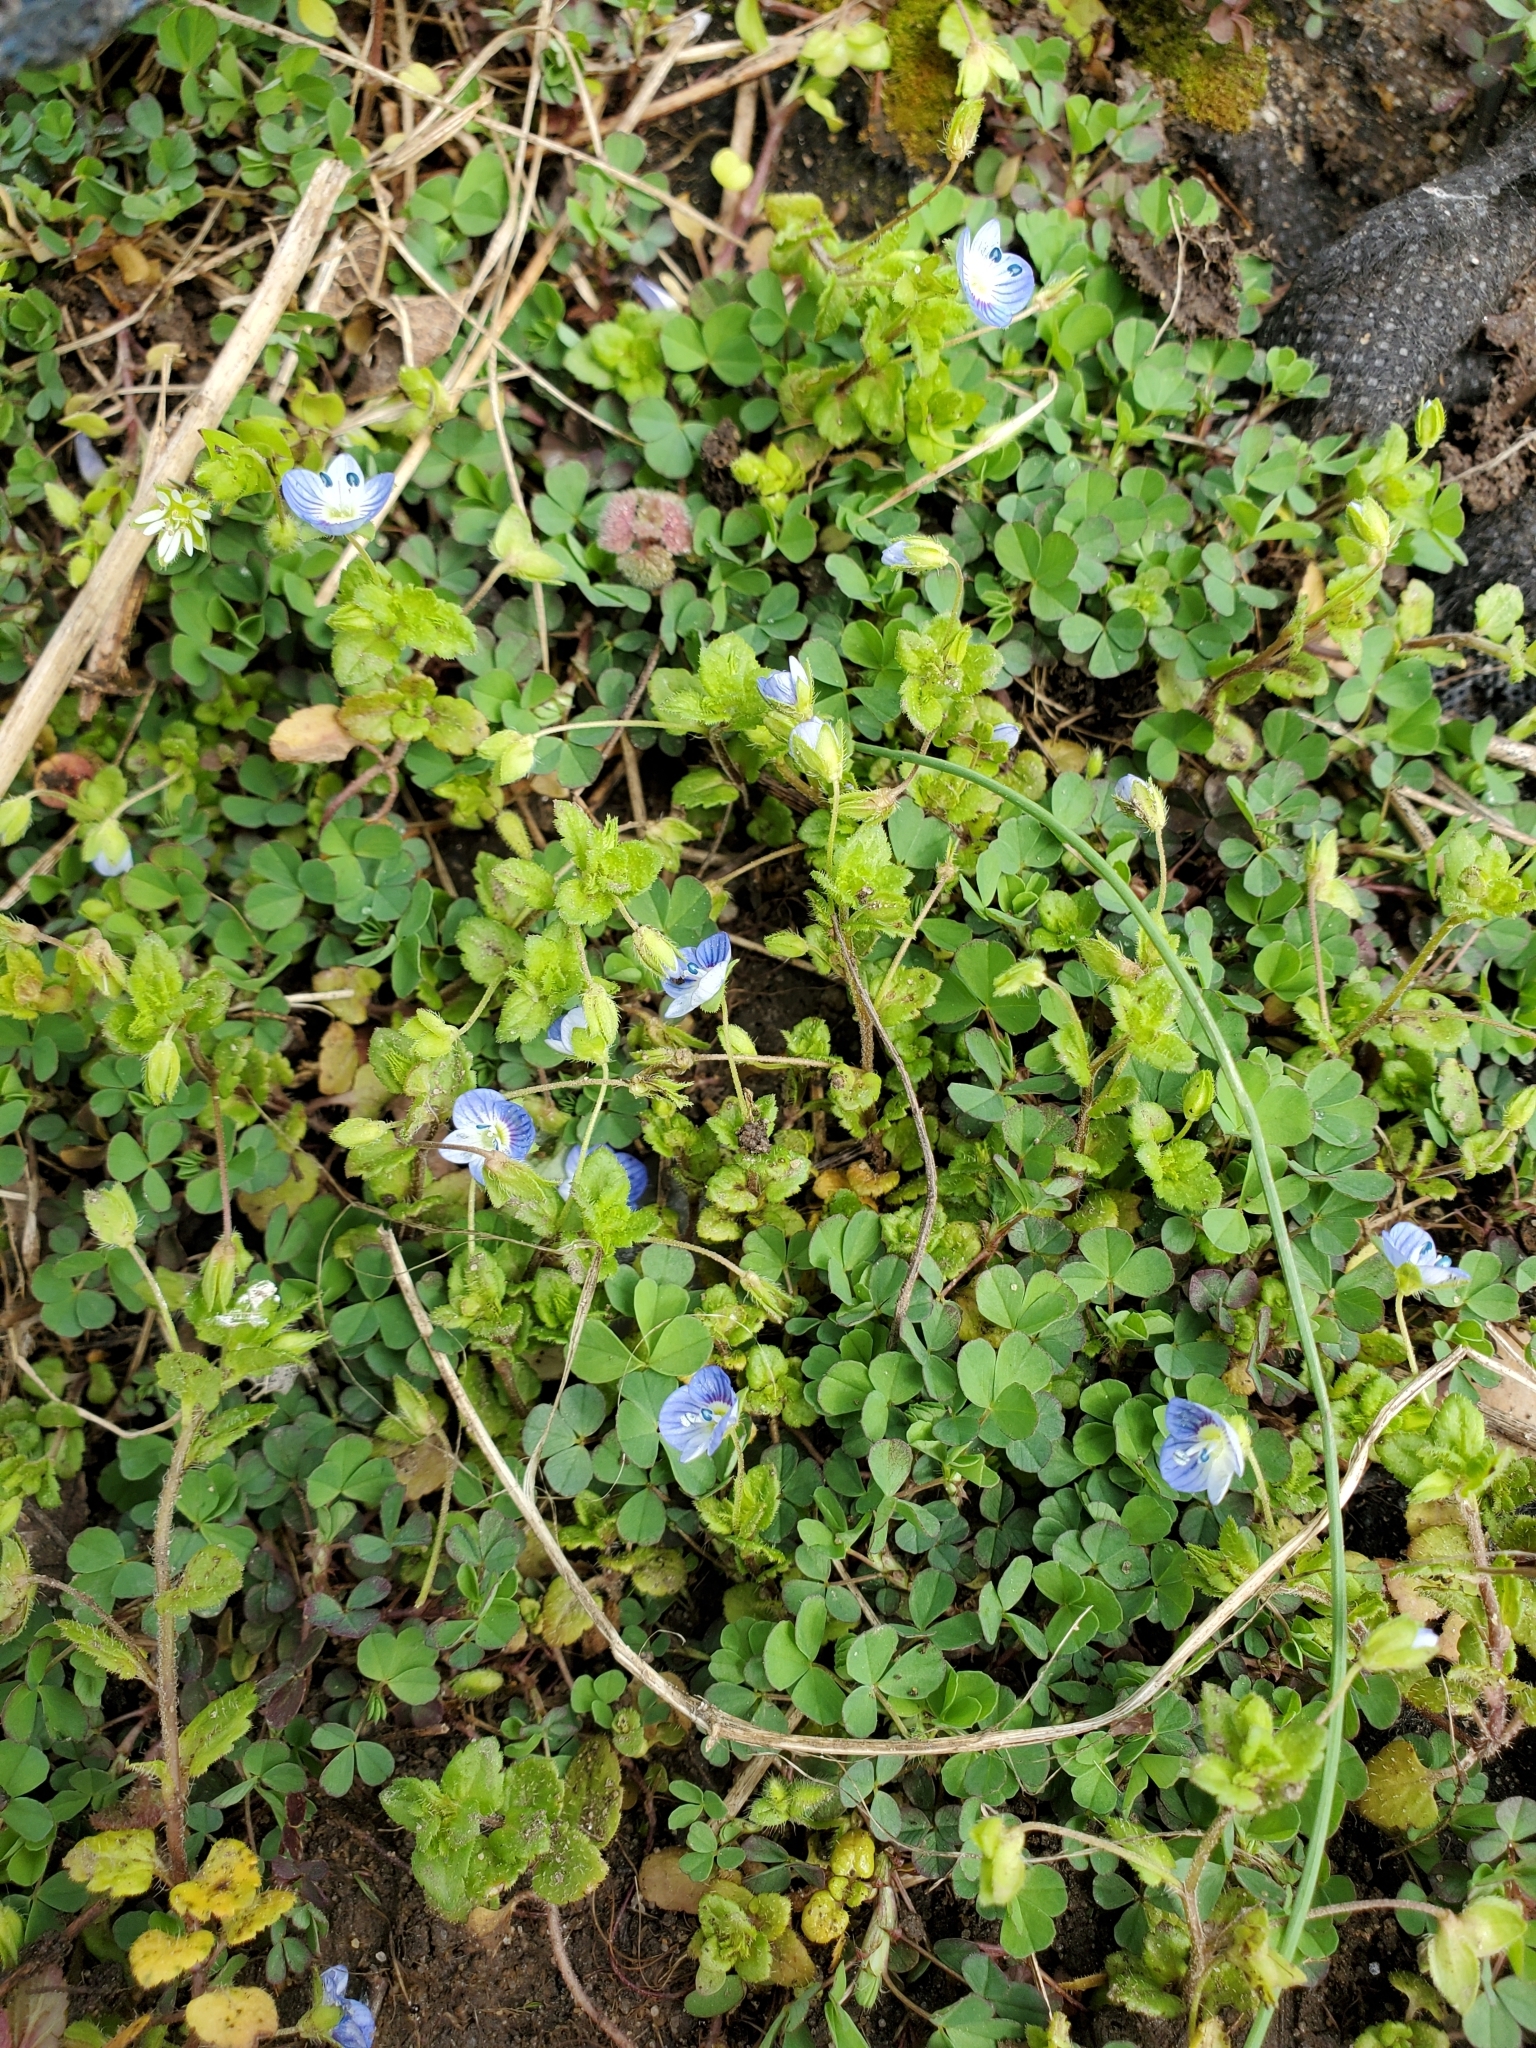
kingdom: Plantae
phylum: Tracheophyta
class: Magnoliopsida
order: Lamiales
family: Plantaginaceae
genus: Veronica
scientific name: Veronica persica
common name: Common field-speedwell
